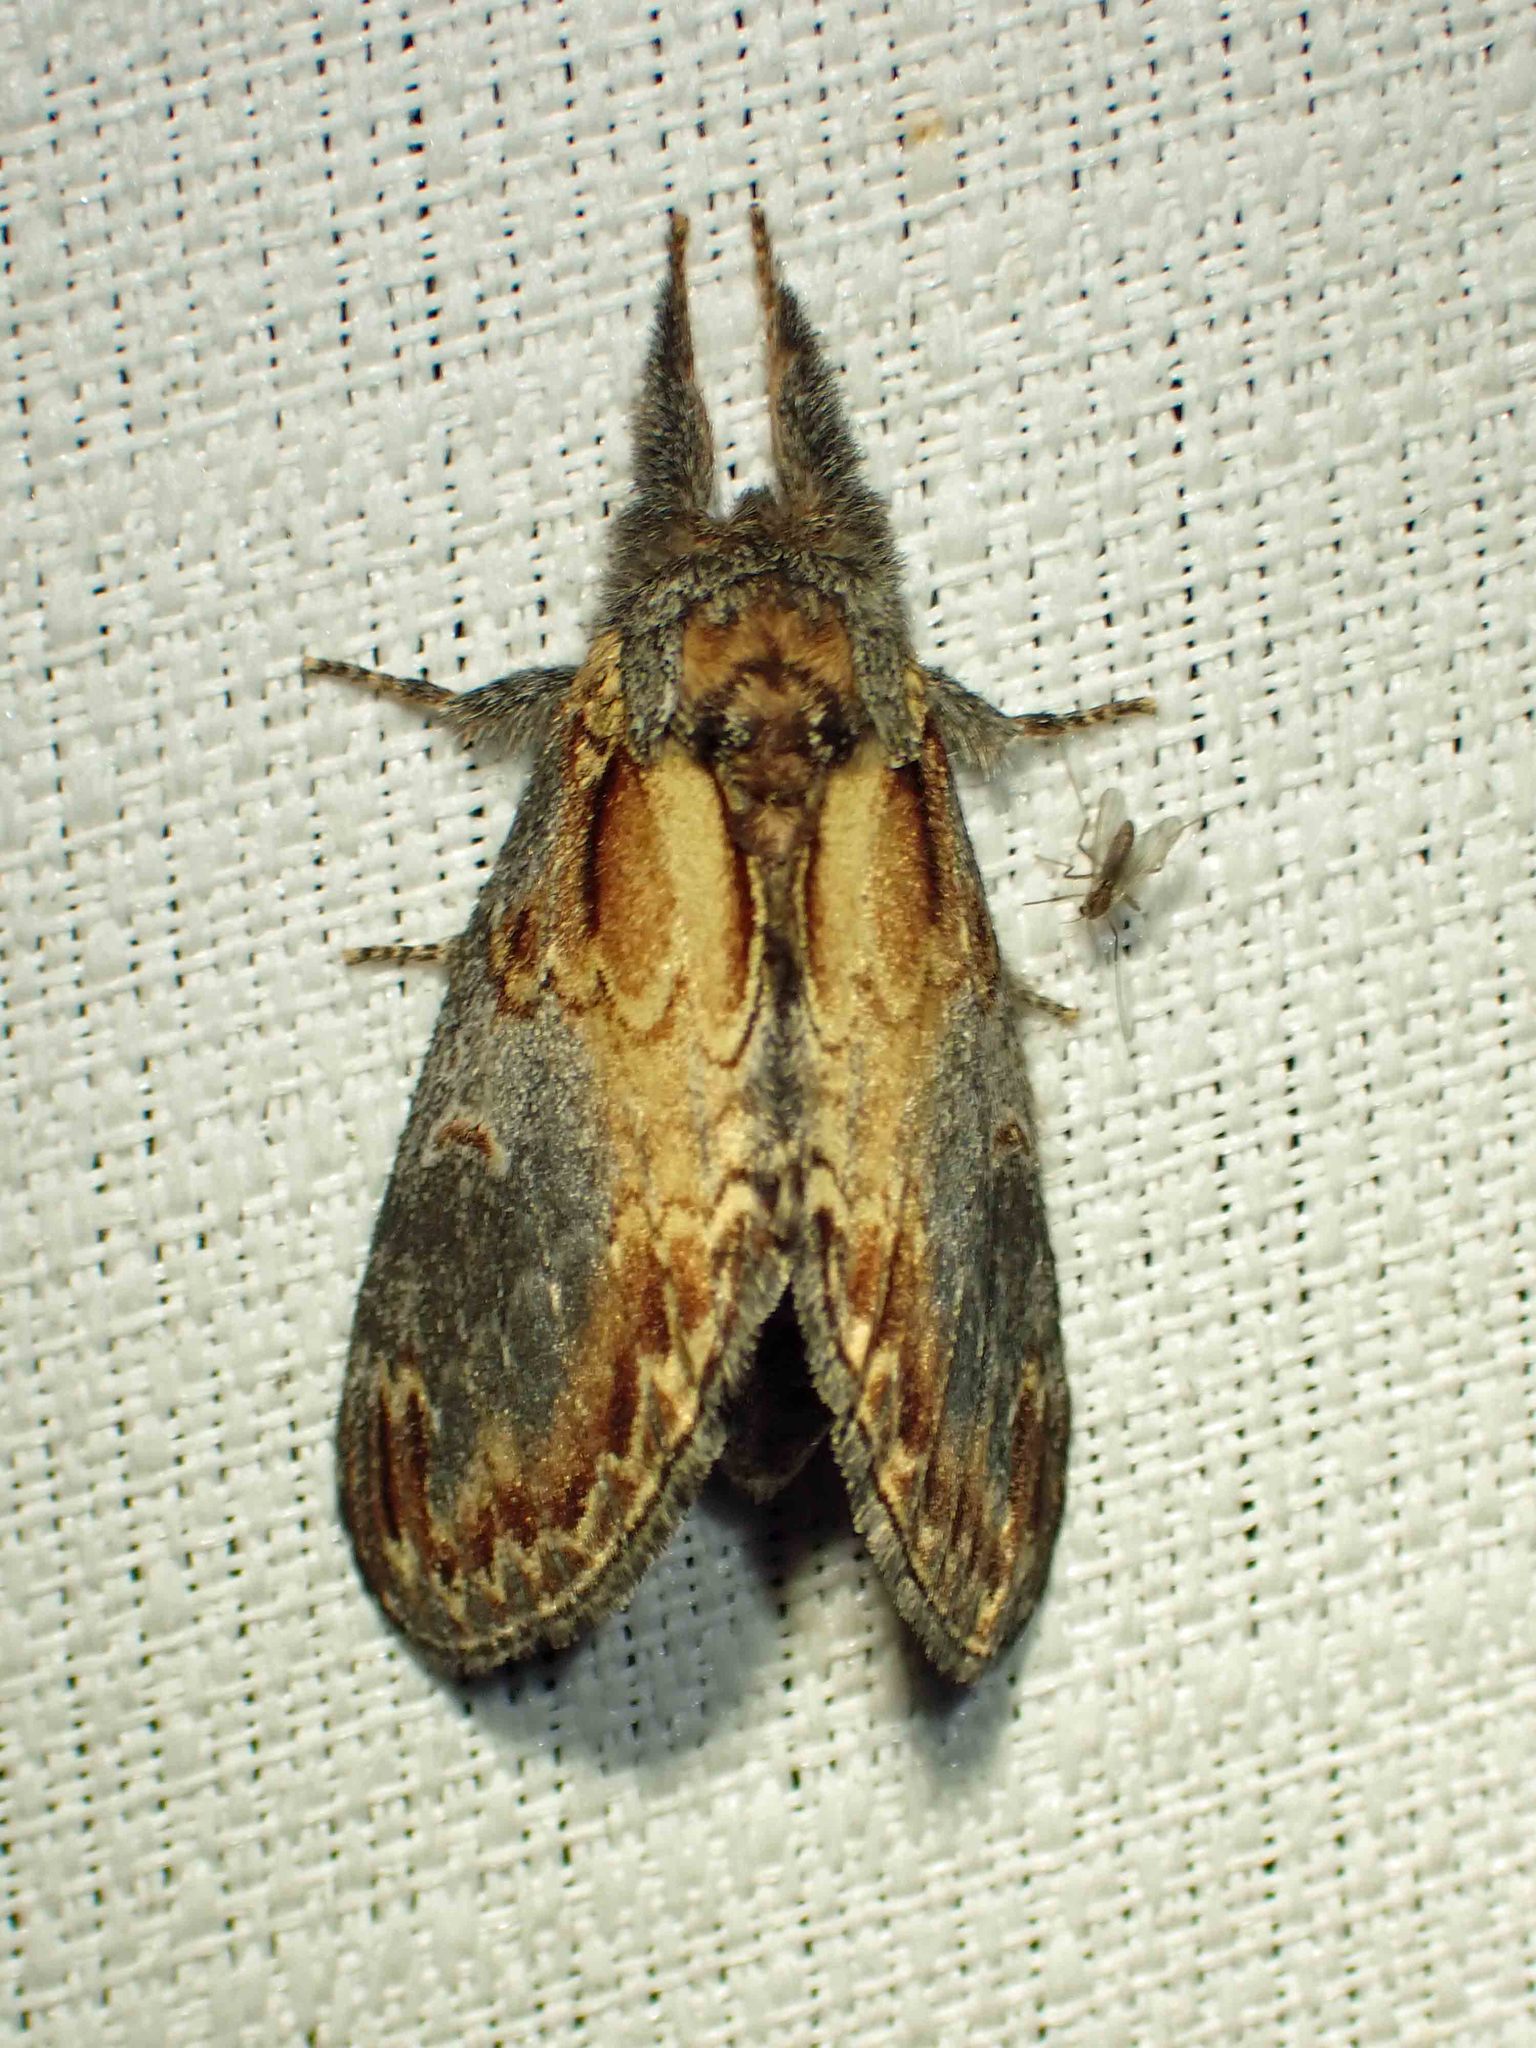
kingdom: Animalia
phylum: Arthropoda
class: Insecta
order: Lepidoptera
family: Notodontidae
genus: Notodonta
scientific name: Notodonta scitipennis
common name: Finned-willow prominent moth
